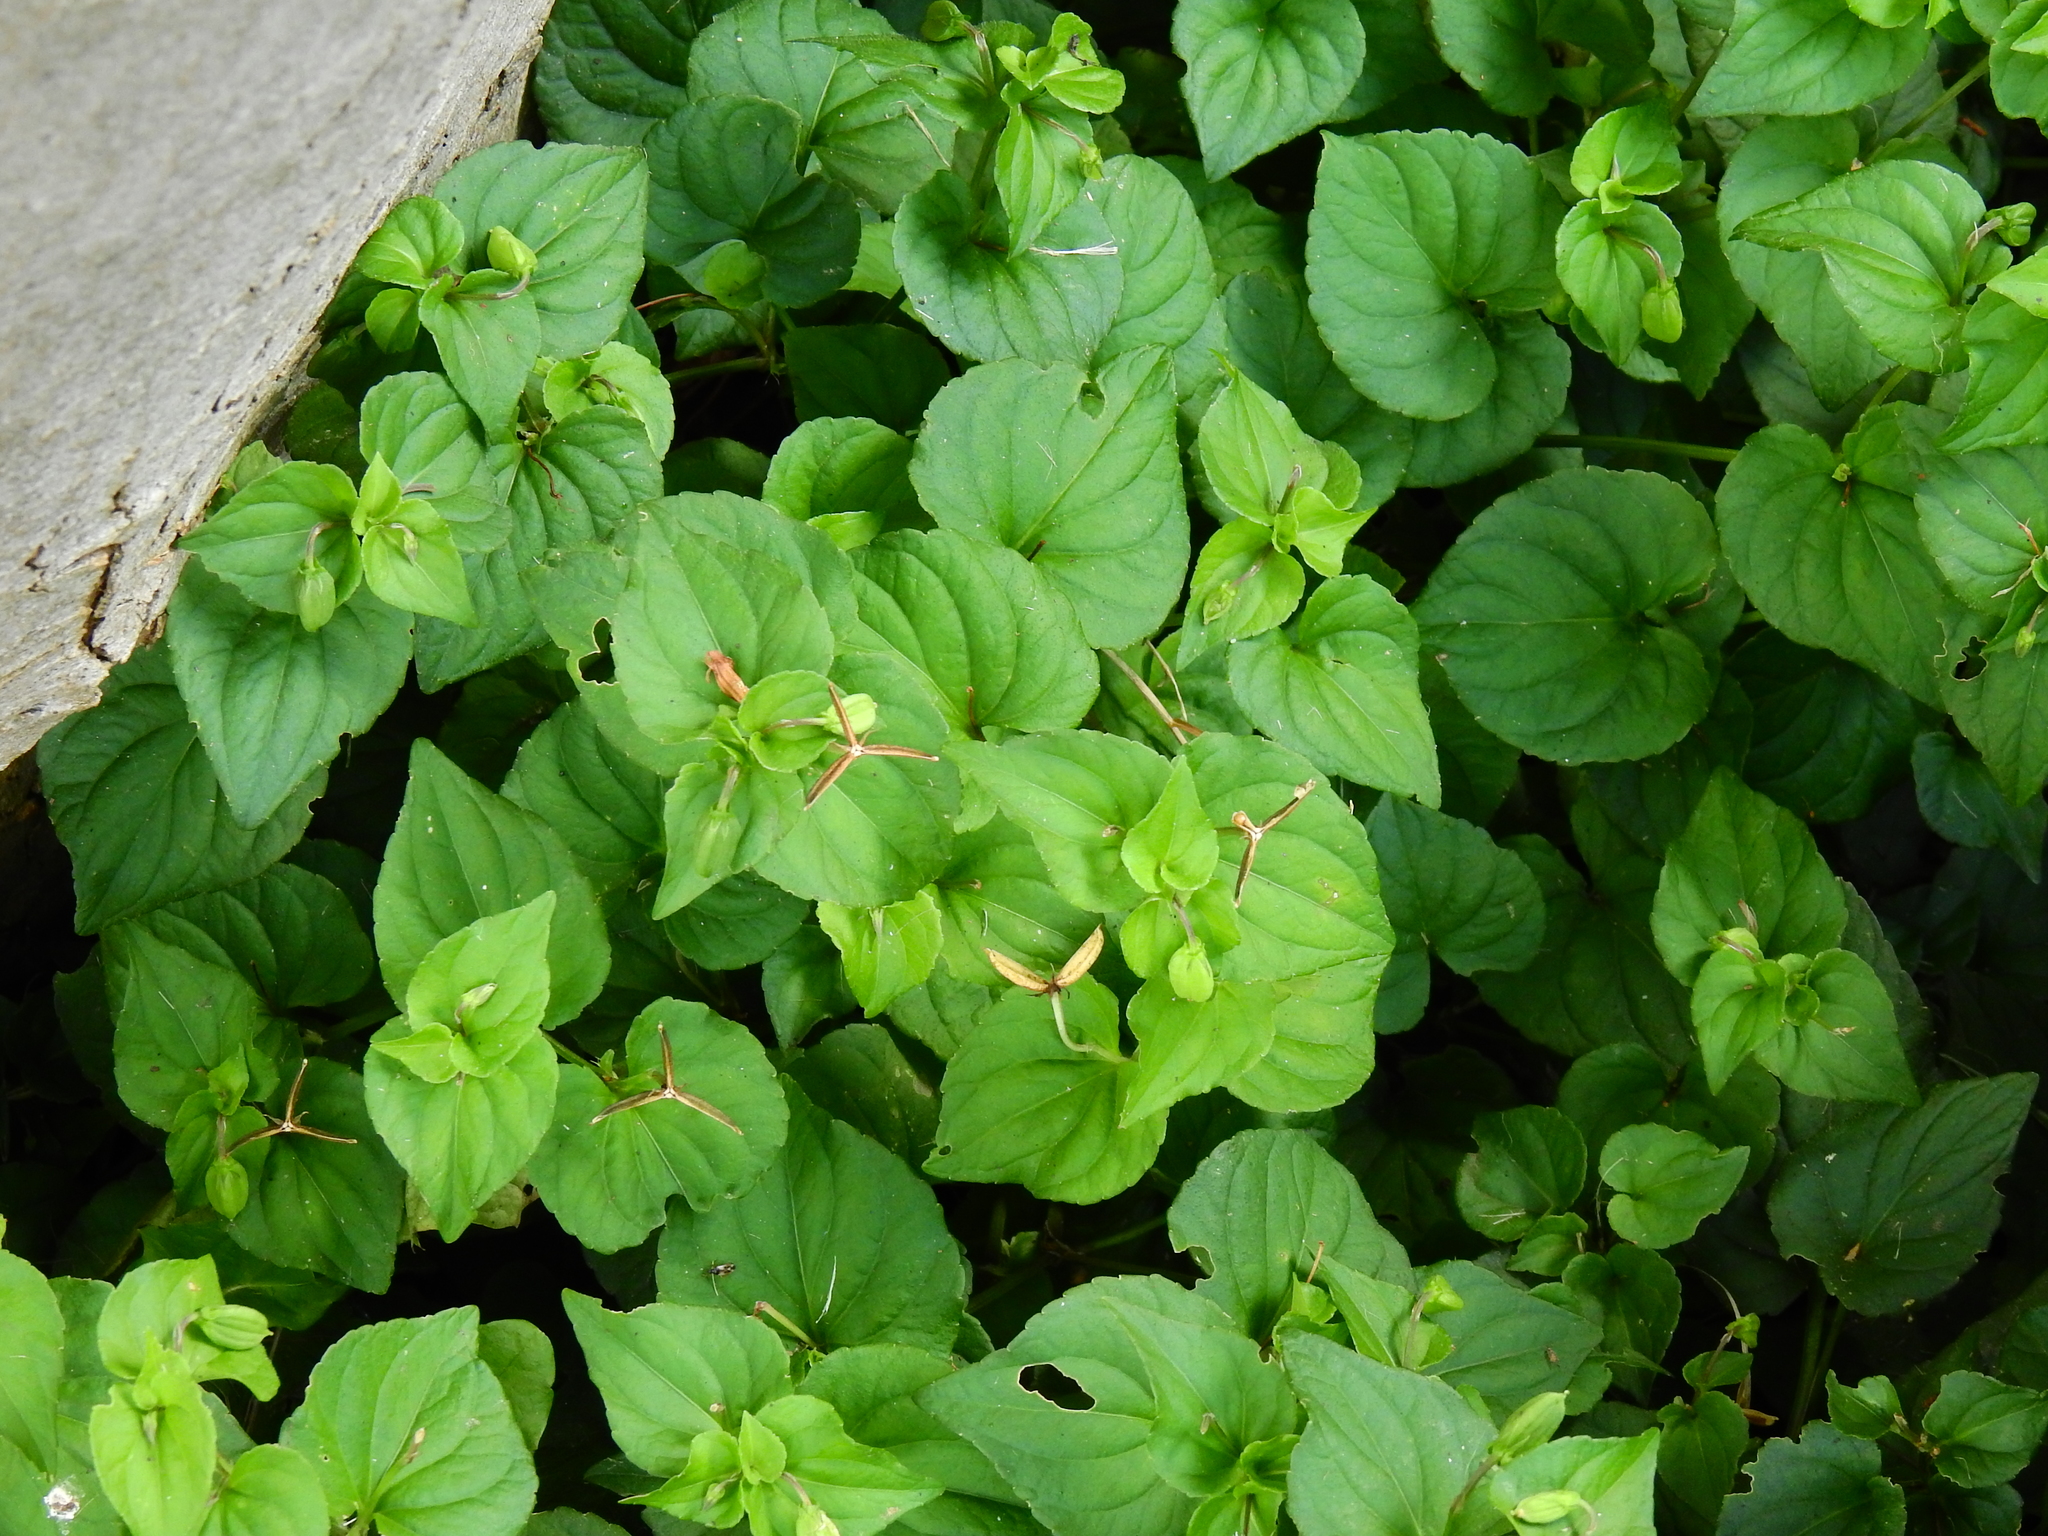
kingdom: Plantae
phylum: Tracheophyta
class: Magnoliopsida
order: Malpighiales
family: Violaceae
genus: Viola
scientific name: Viola riviniana
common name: Common dog-violet
